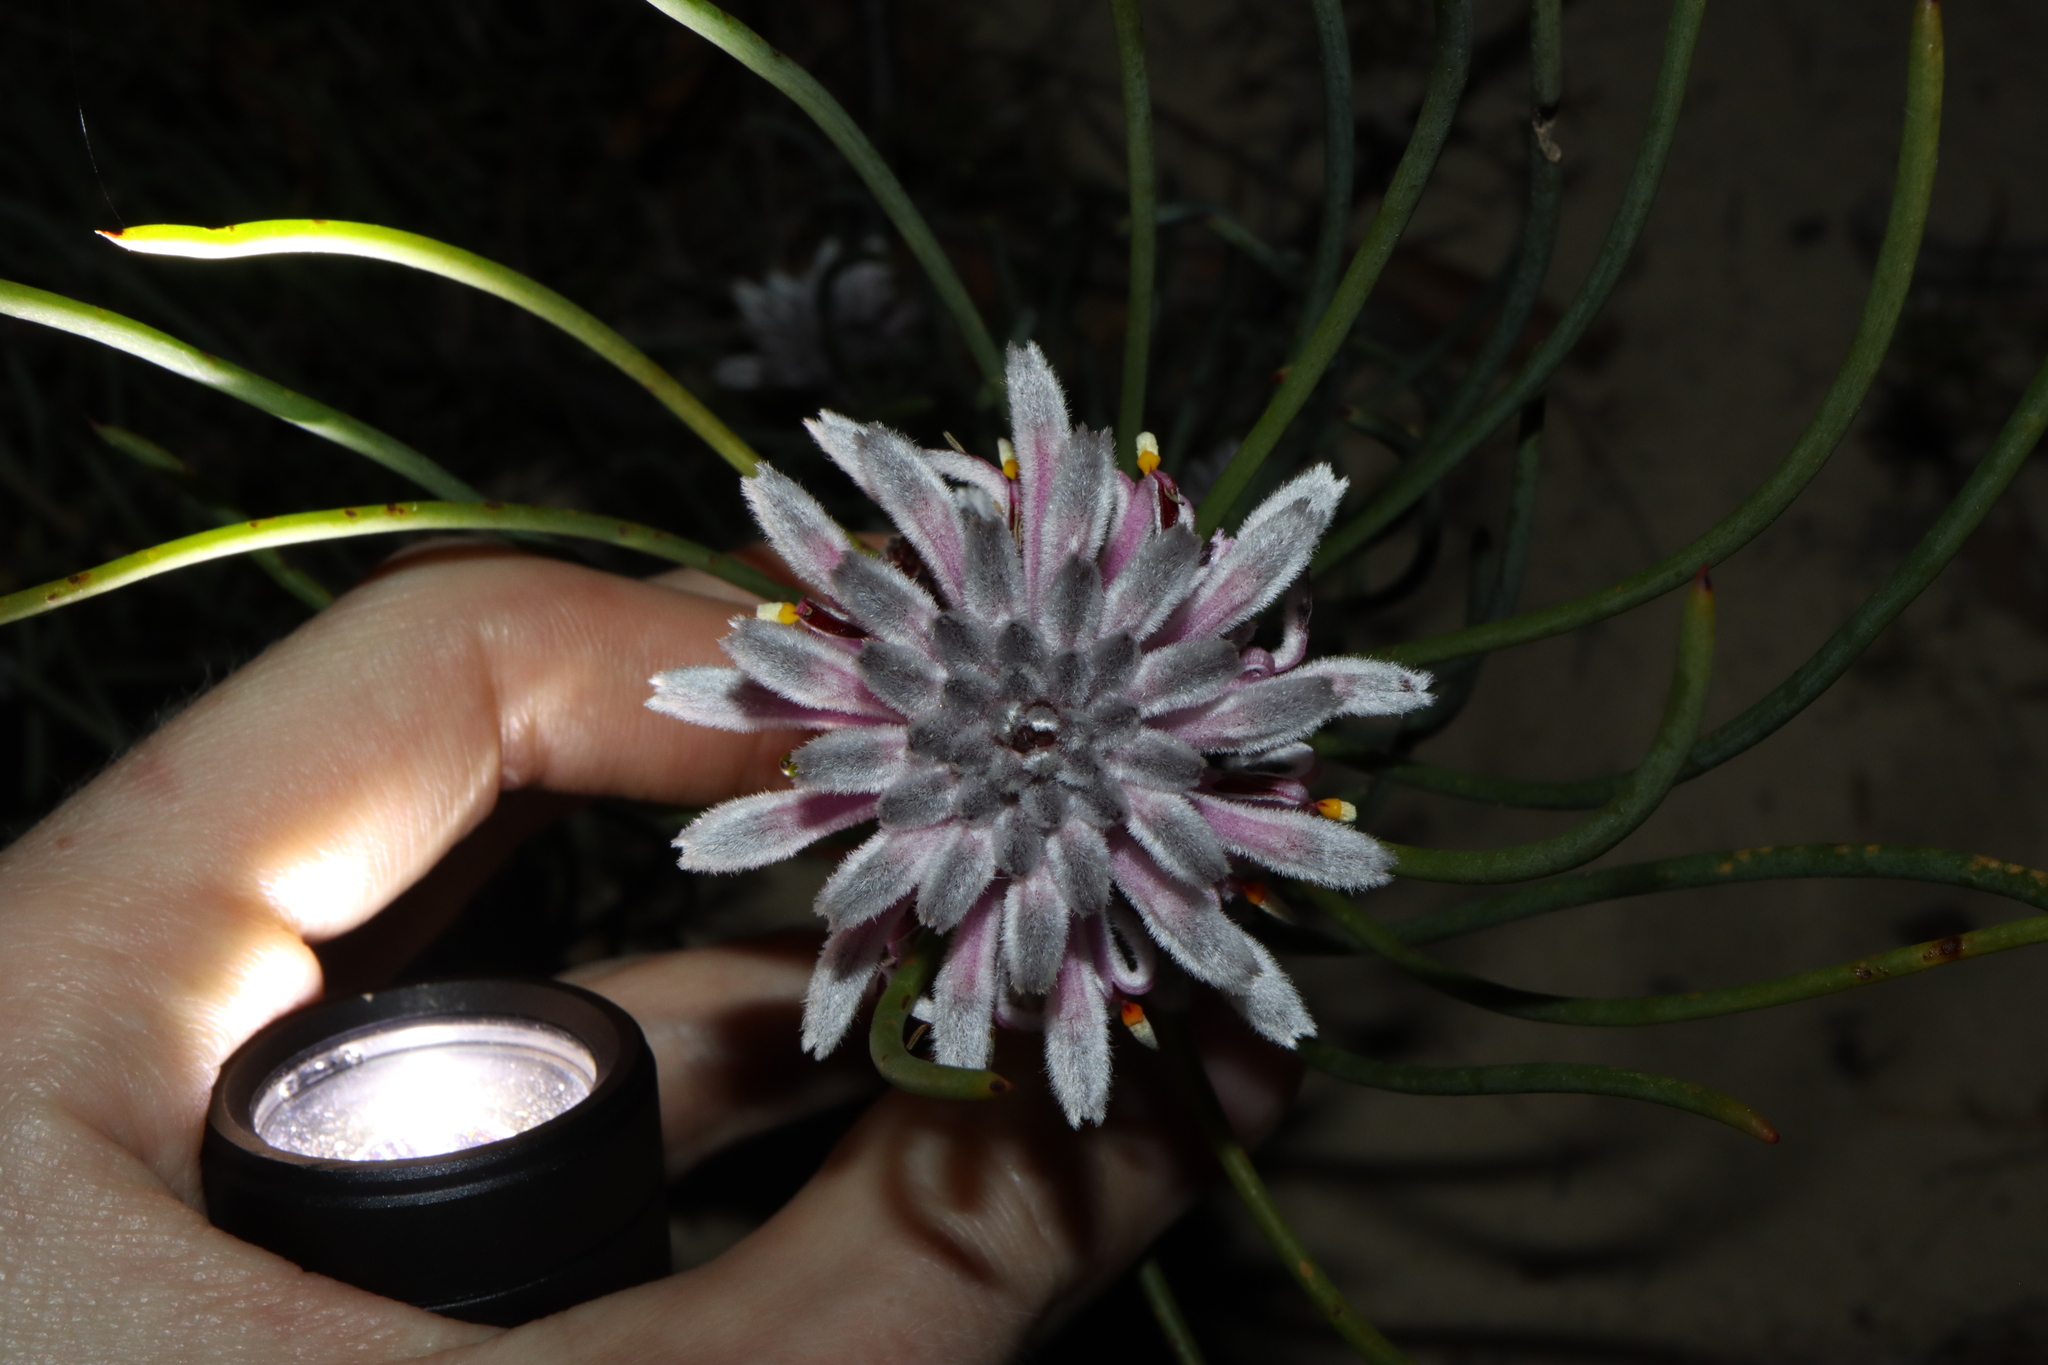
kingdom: Plantae
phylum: Tracheophyta
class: Magnoliopsida
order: Proteales
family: Proteaceae
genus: Petrophile
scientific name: Petrophile teretifolia
